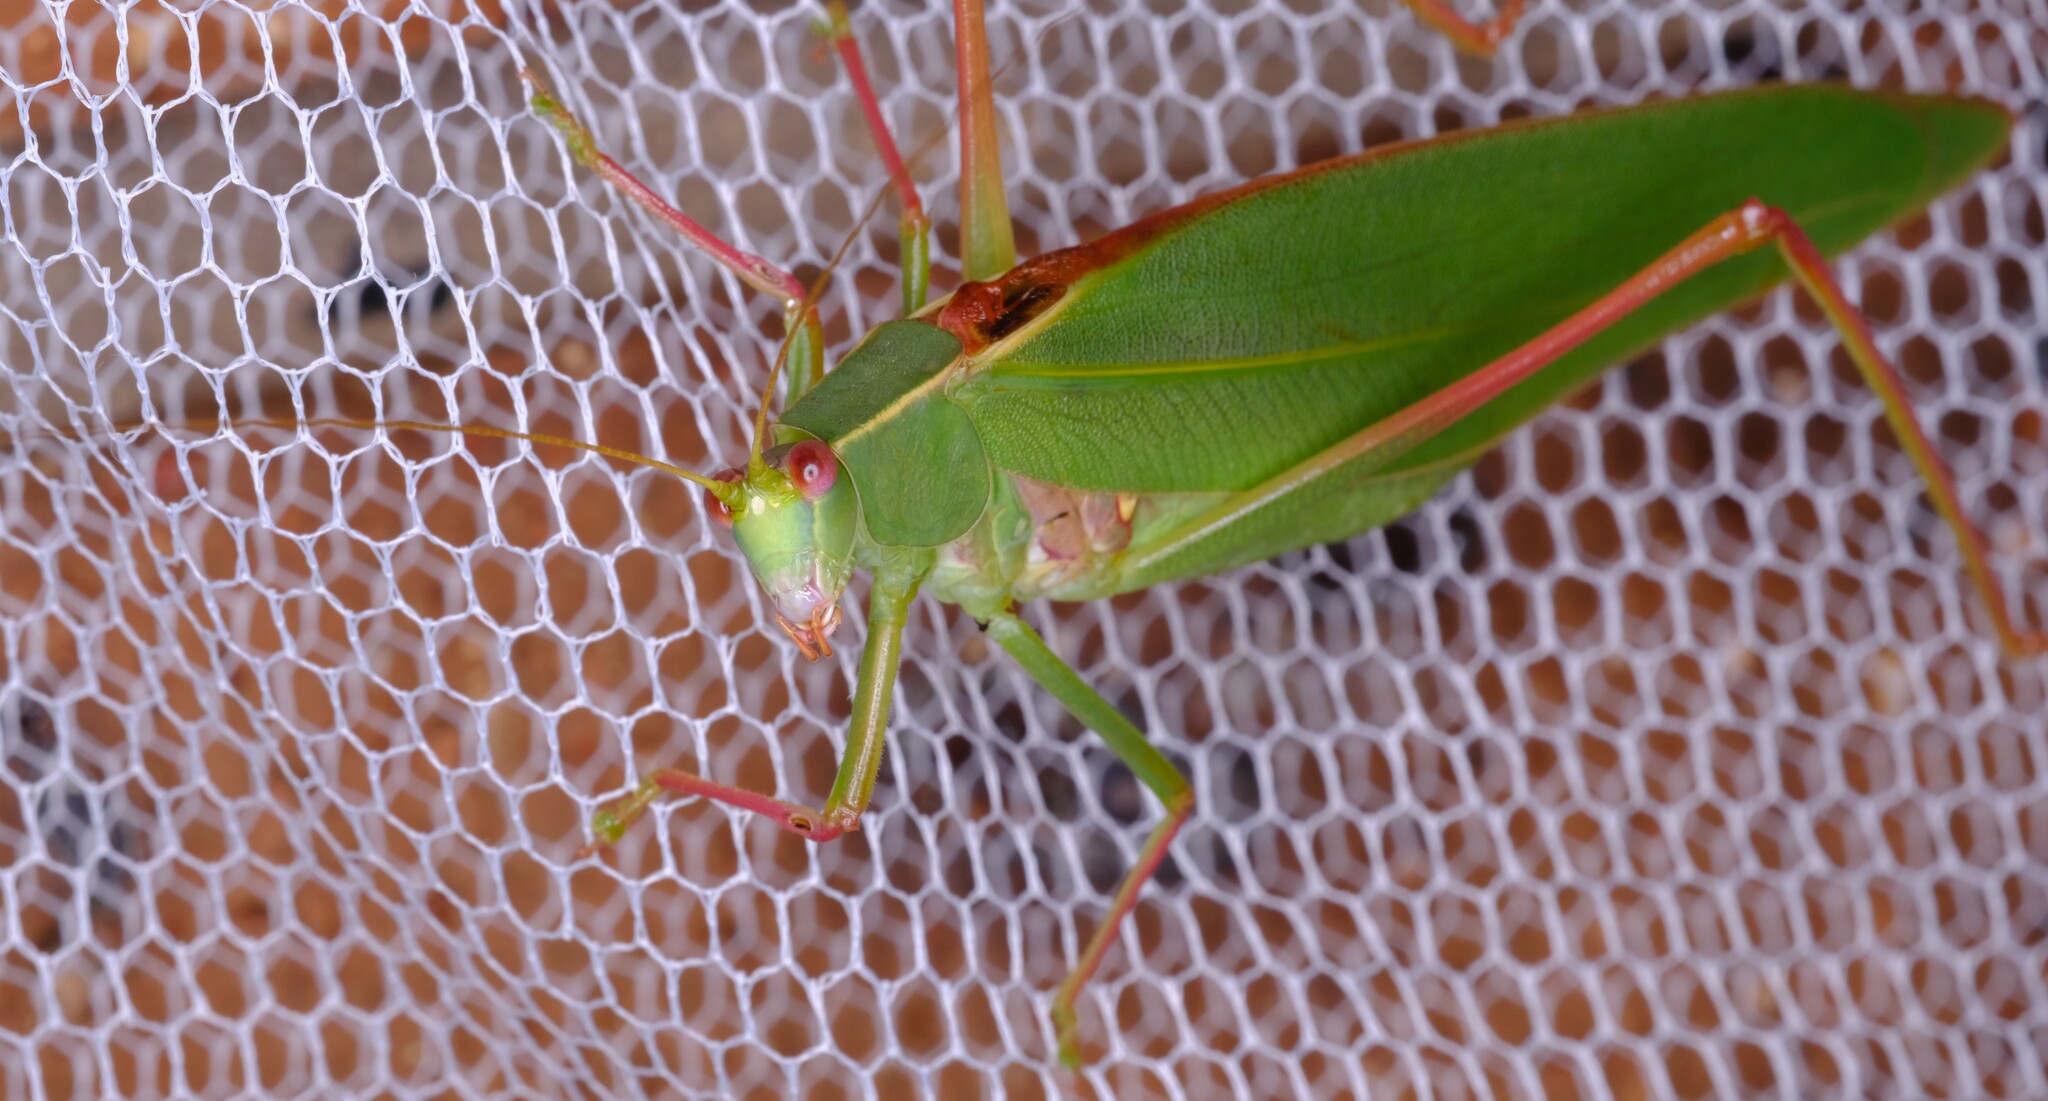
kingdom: Animalia
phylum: Arthropoda
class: Insecta
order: Orthoptera
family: Tettigoniidae
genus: Torbia
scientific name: Torbia viridissima
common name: Non-predaceous gum leaf katydid
